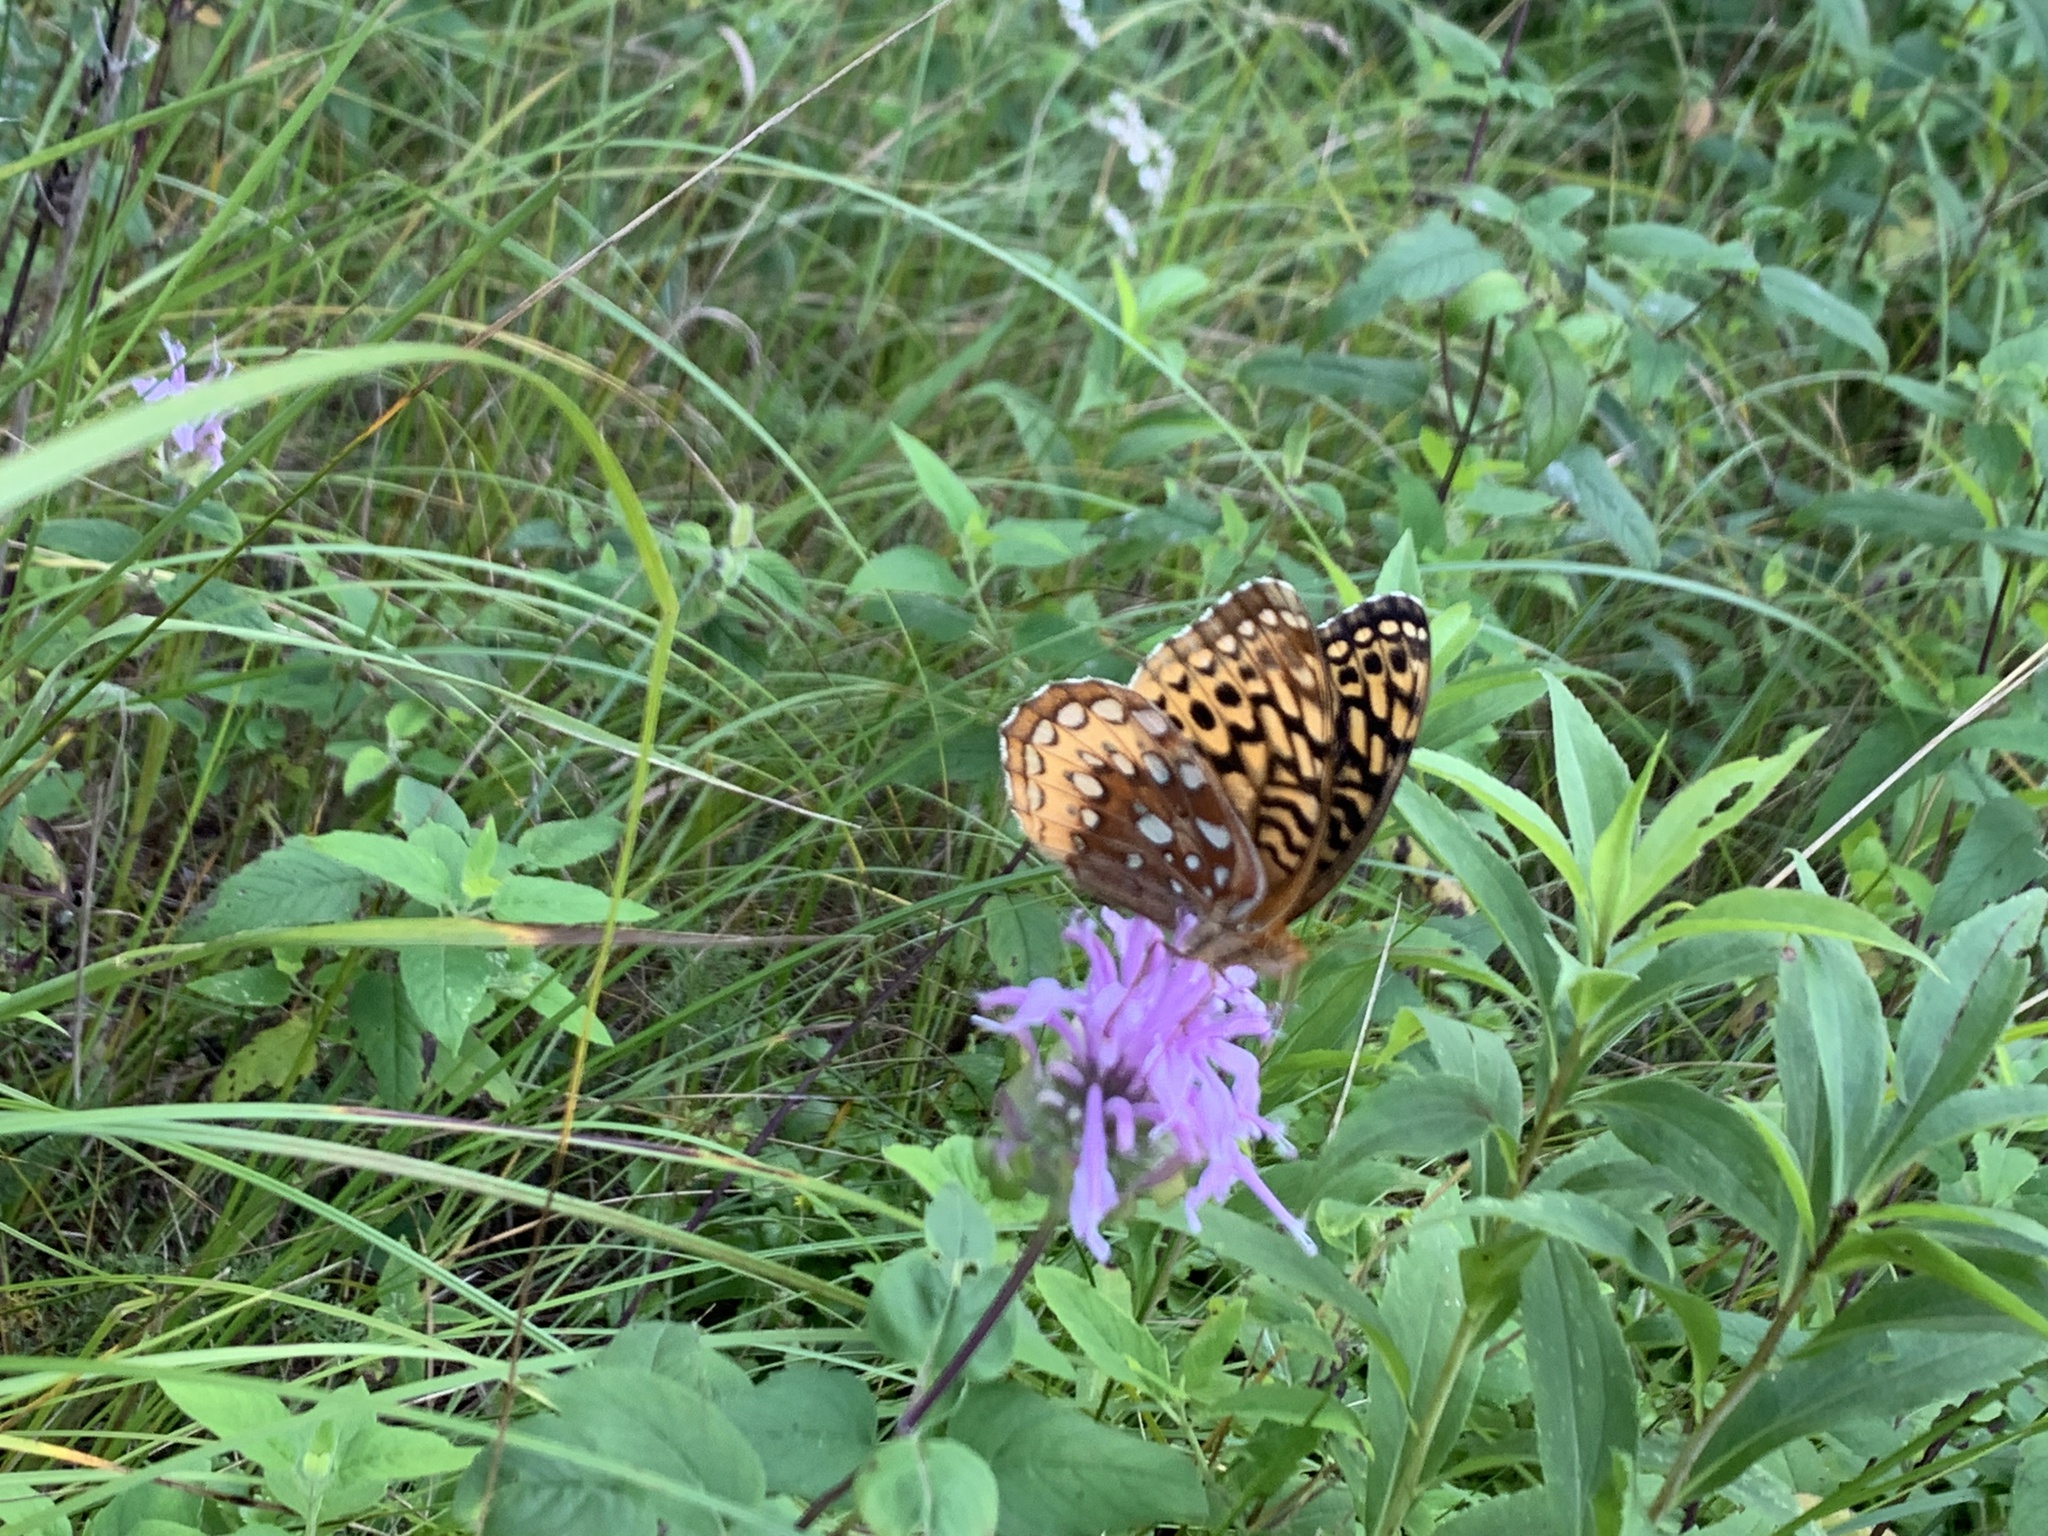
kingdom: Animalia
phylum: Arthropoda
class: Insecta
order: Lepidoptera
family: Nymphalidae
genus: Speyeria
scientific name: Speyeria cybele
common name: Great spangled fritillary
